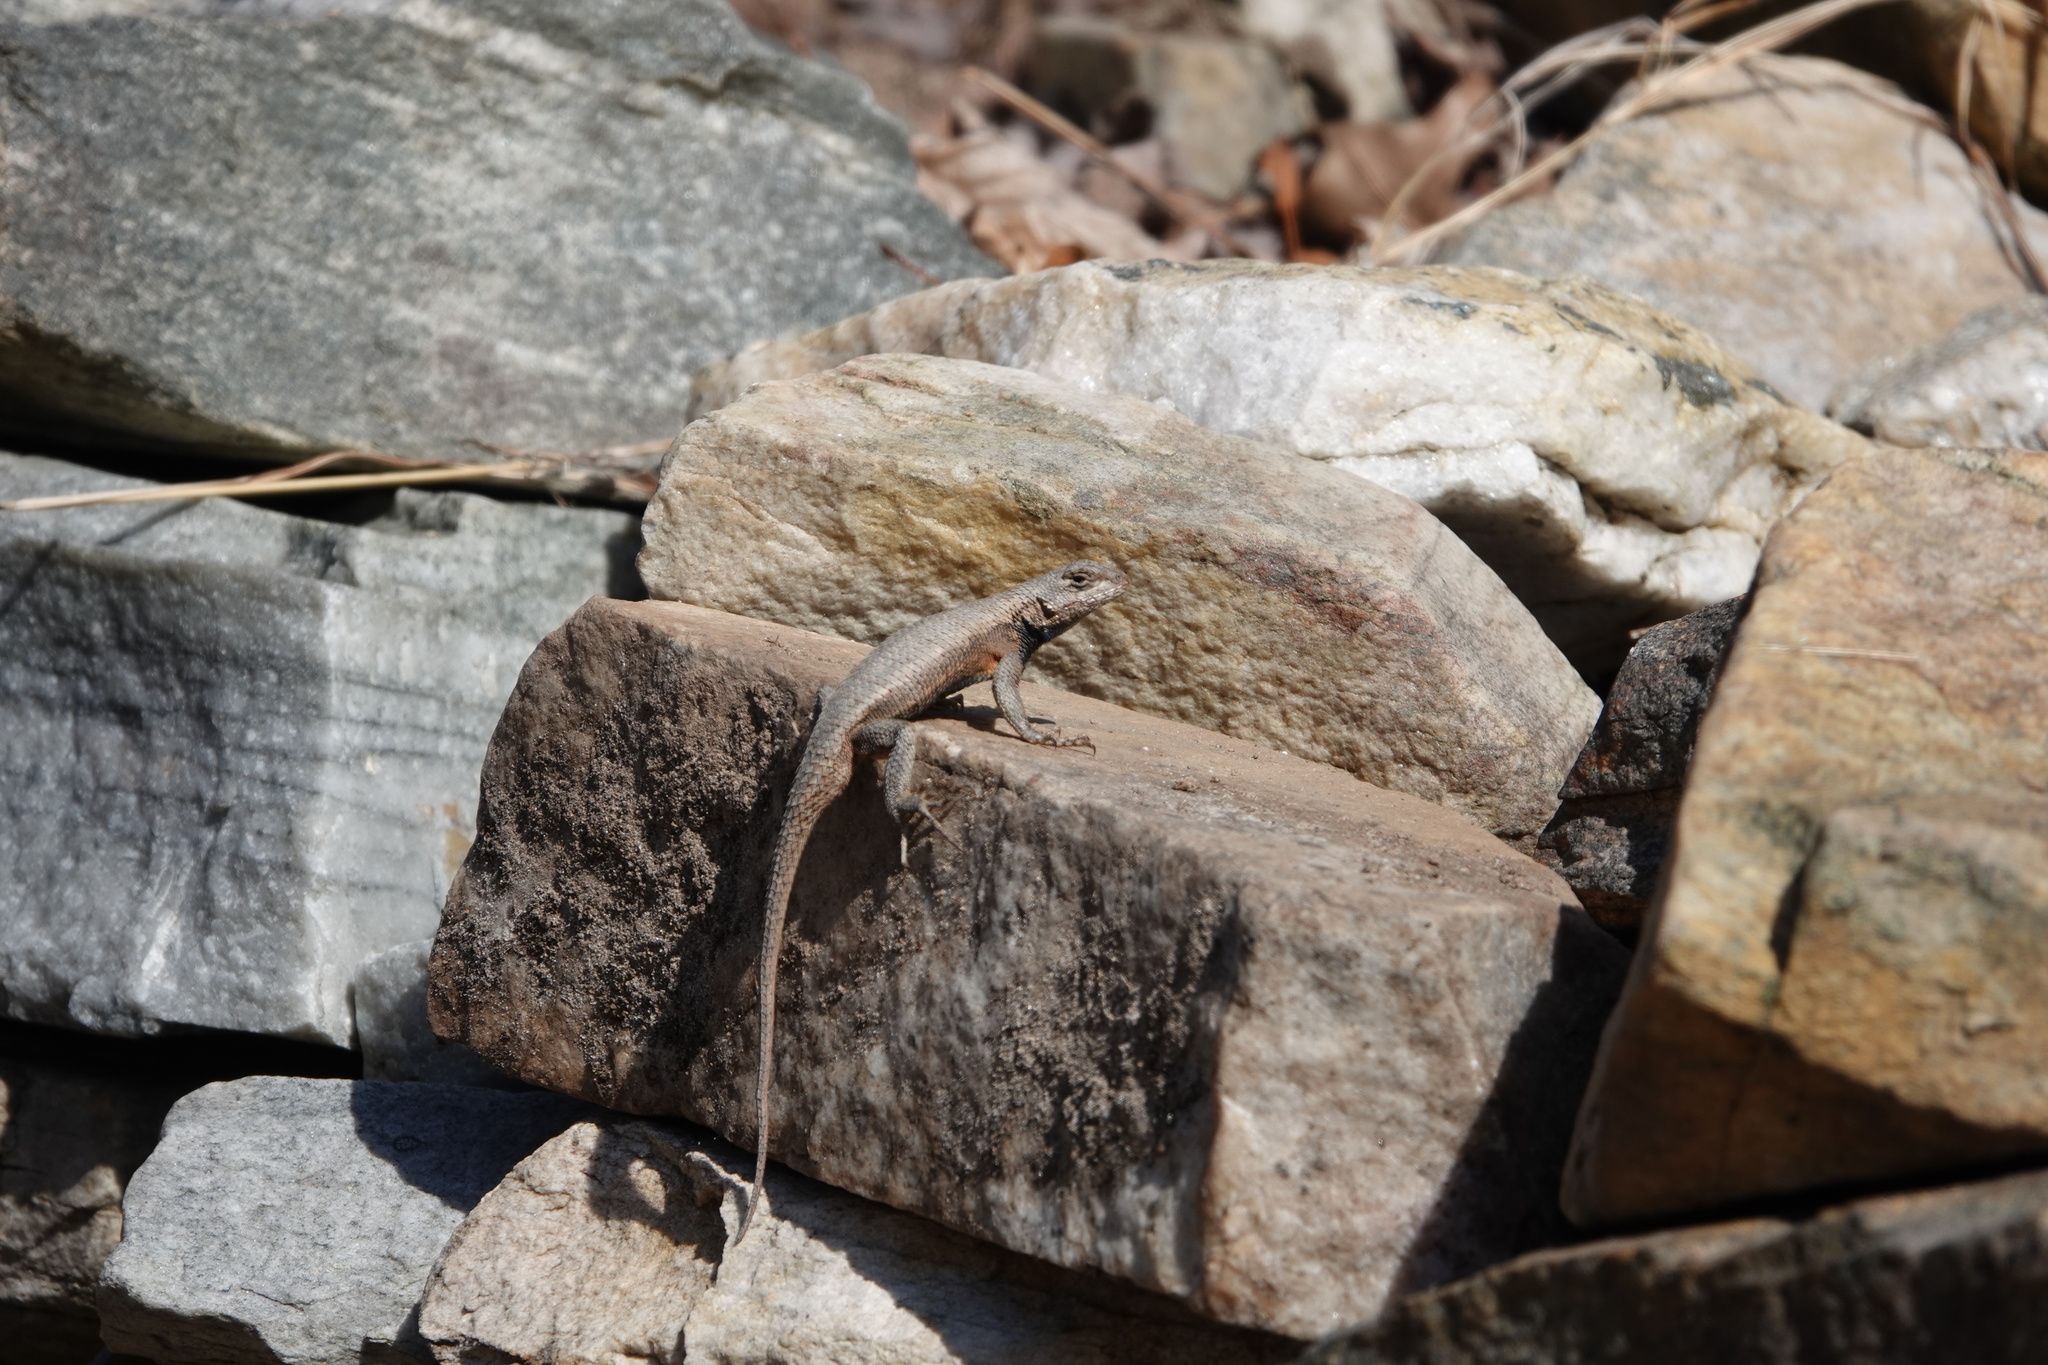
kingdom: Animalia
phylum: Chordata
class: Squamata
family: Phrynosomatidae
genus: Sceloporus
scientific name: Sceloporus undulatus
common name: Eastern fence lizard
